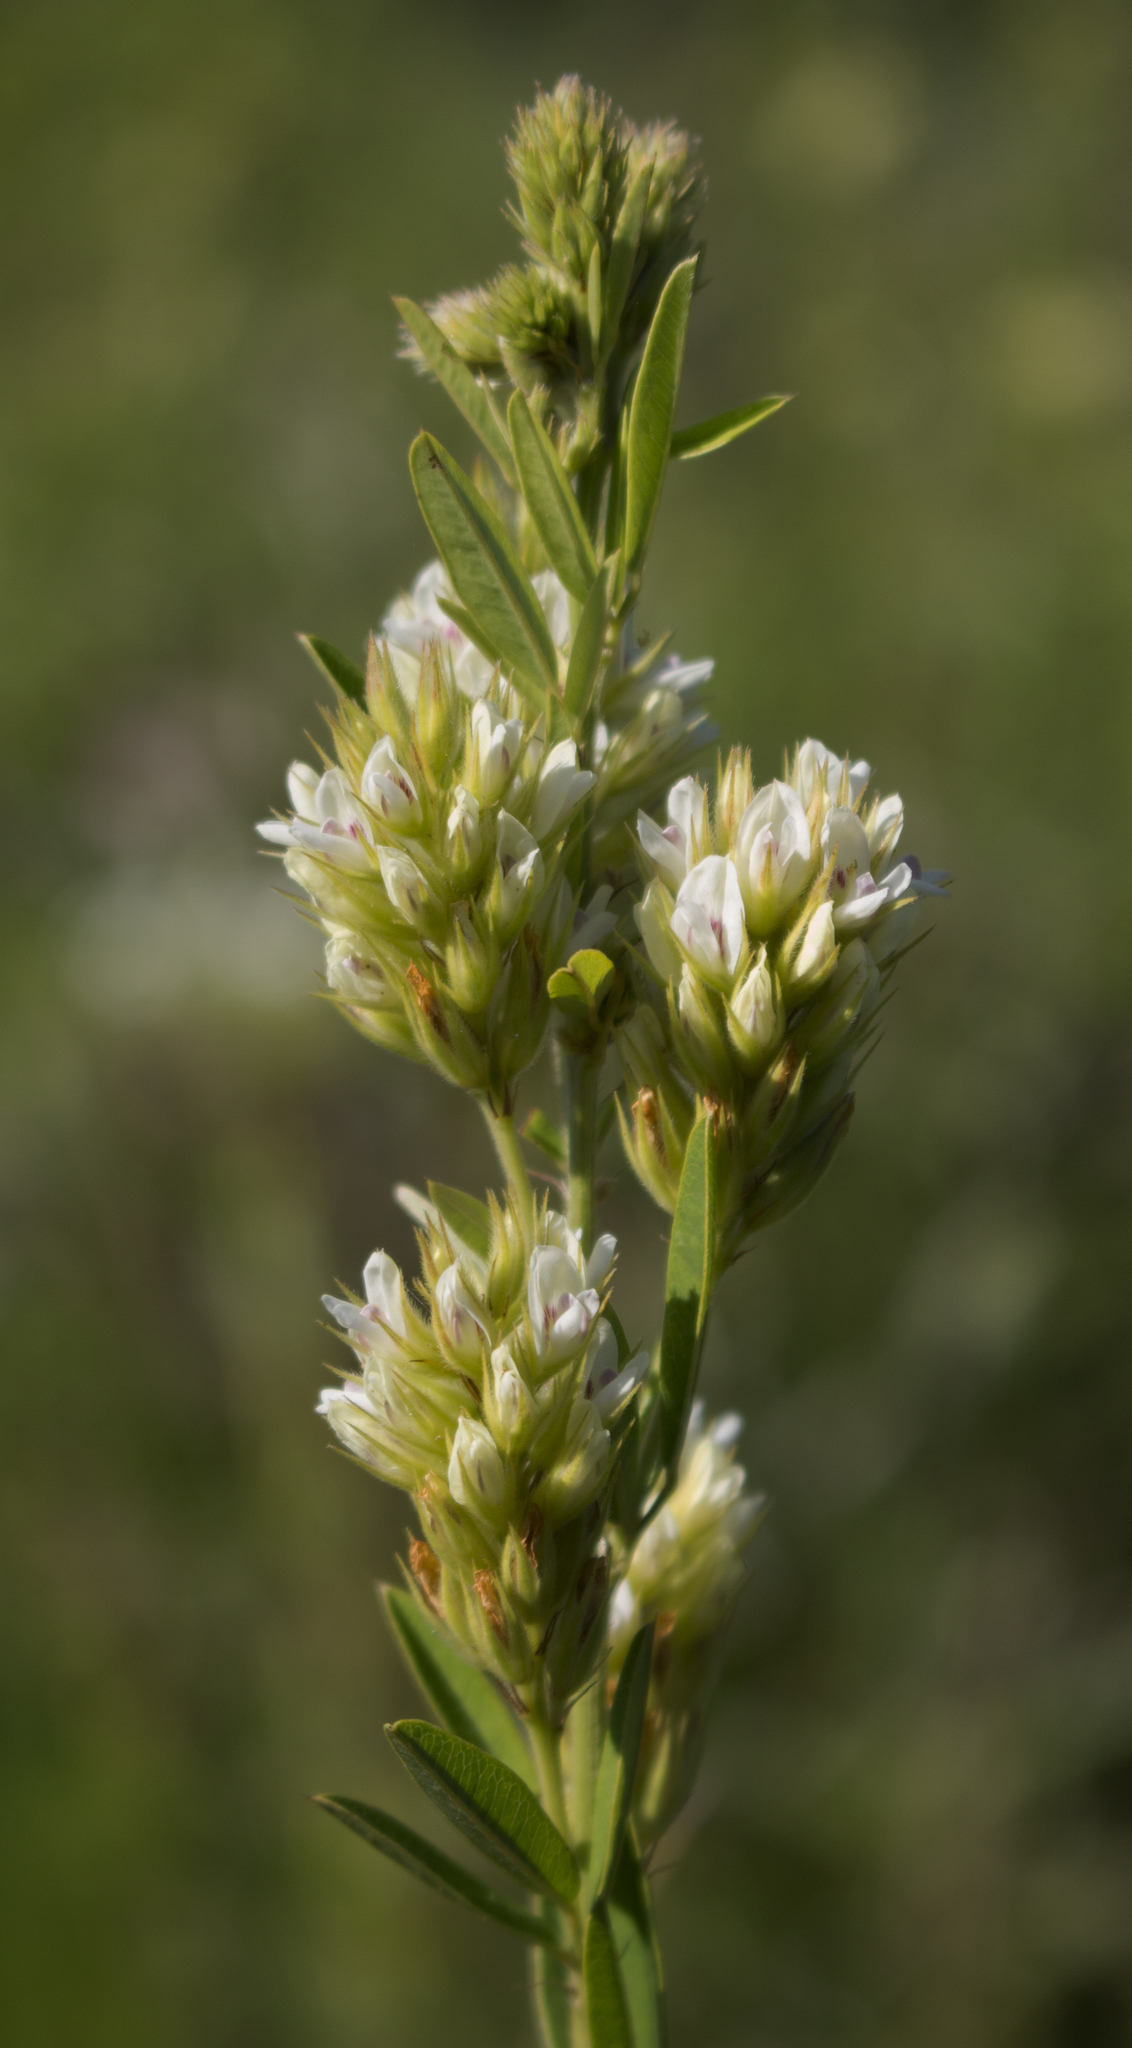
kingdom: Plantae
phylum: Tracheophyta
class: Magnoliopsida
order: Fabales
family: Fabaceae
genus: Lespedeza
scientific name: Lespedeza capitata
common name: Dusty clover
